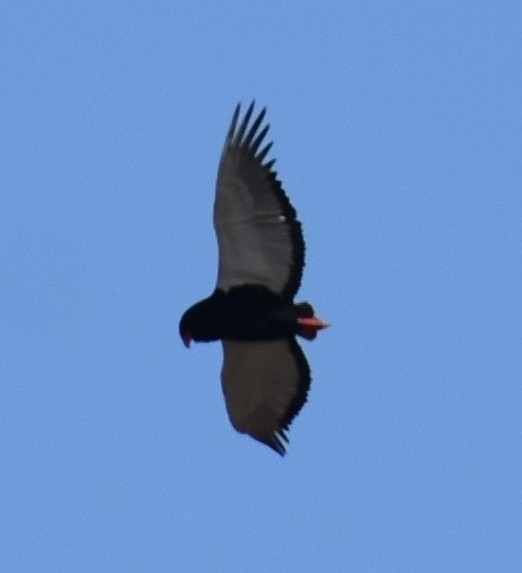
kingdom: Animalia
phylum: Chordata
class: Aves
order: Accipitriformes
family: Accipitridae
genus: Terathopius
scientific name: Terathopius ecaudatus
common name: Bateleur
